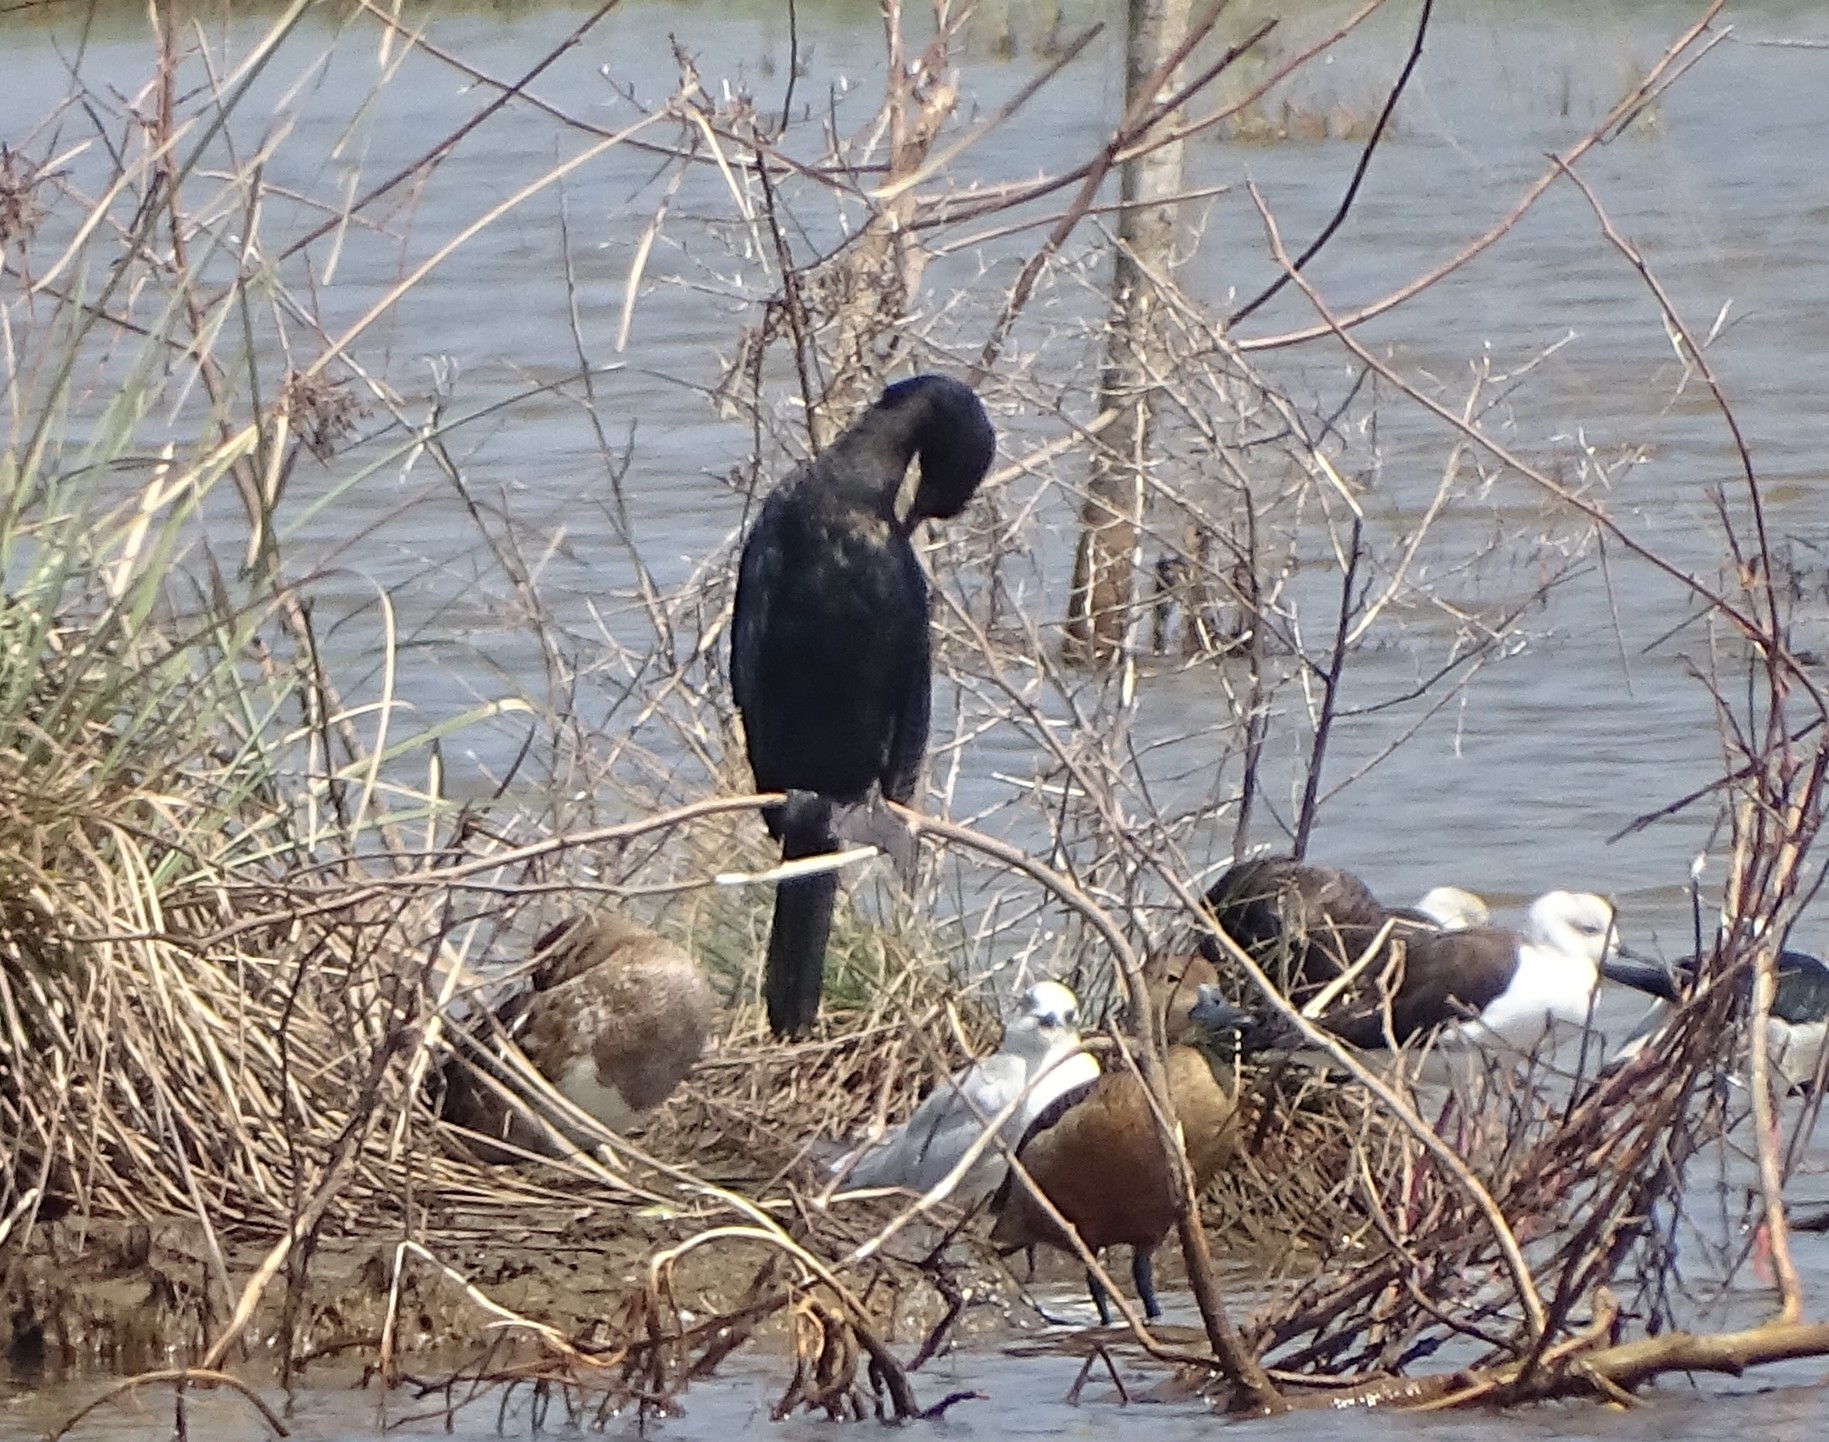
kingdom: Animalia
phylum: Chordata
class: Aves
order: Suliformes
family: Phalacrocoracidae
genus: Microcarbo
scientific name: Microcarbo niger
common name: Little cormorant
